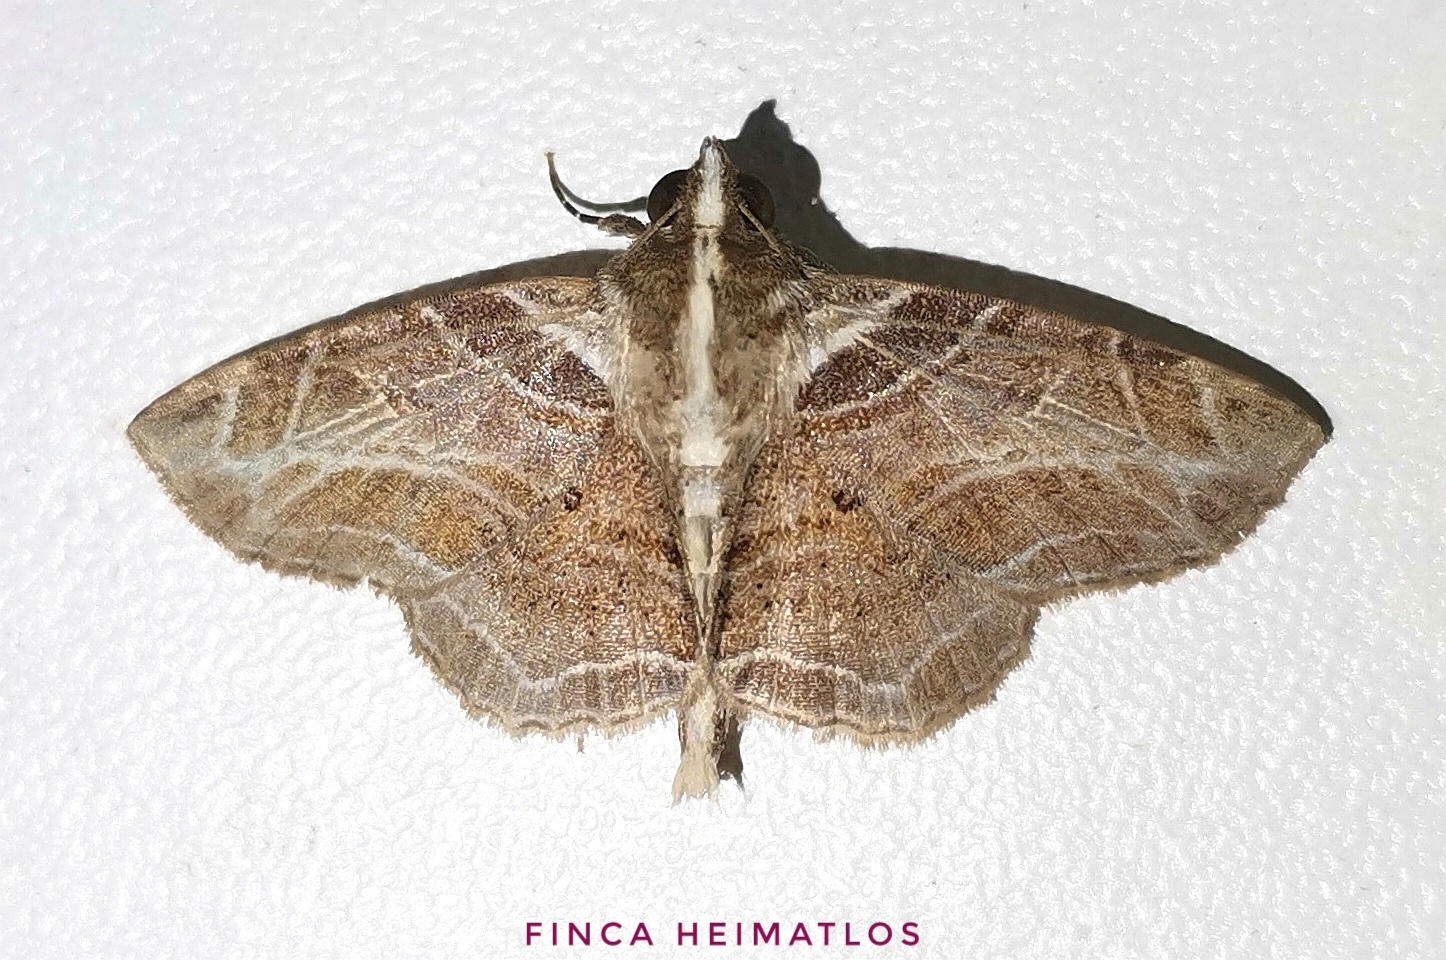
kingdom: Animalia
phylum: Arthropoda
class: Insecta
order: Lepidoptera
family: Erebidae
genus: Dolichosomastis
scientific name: Dolichosomastis leucogrammica
